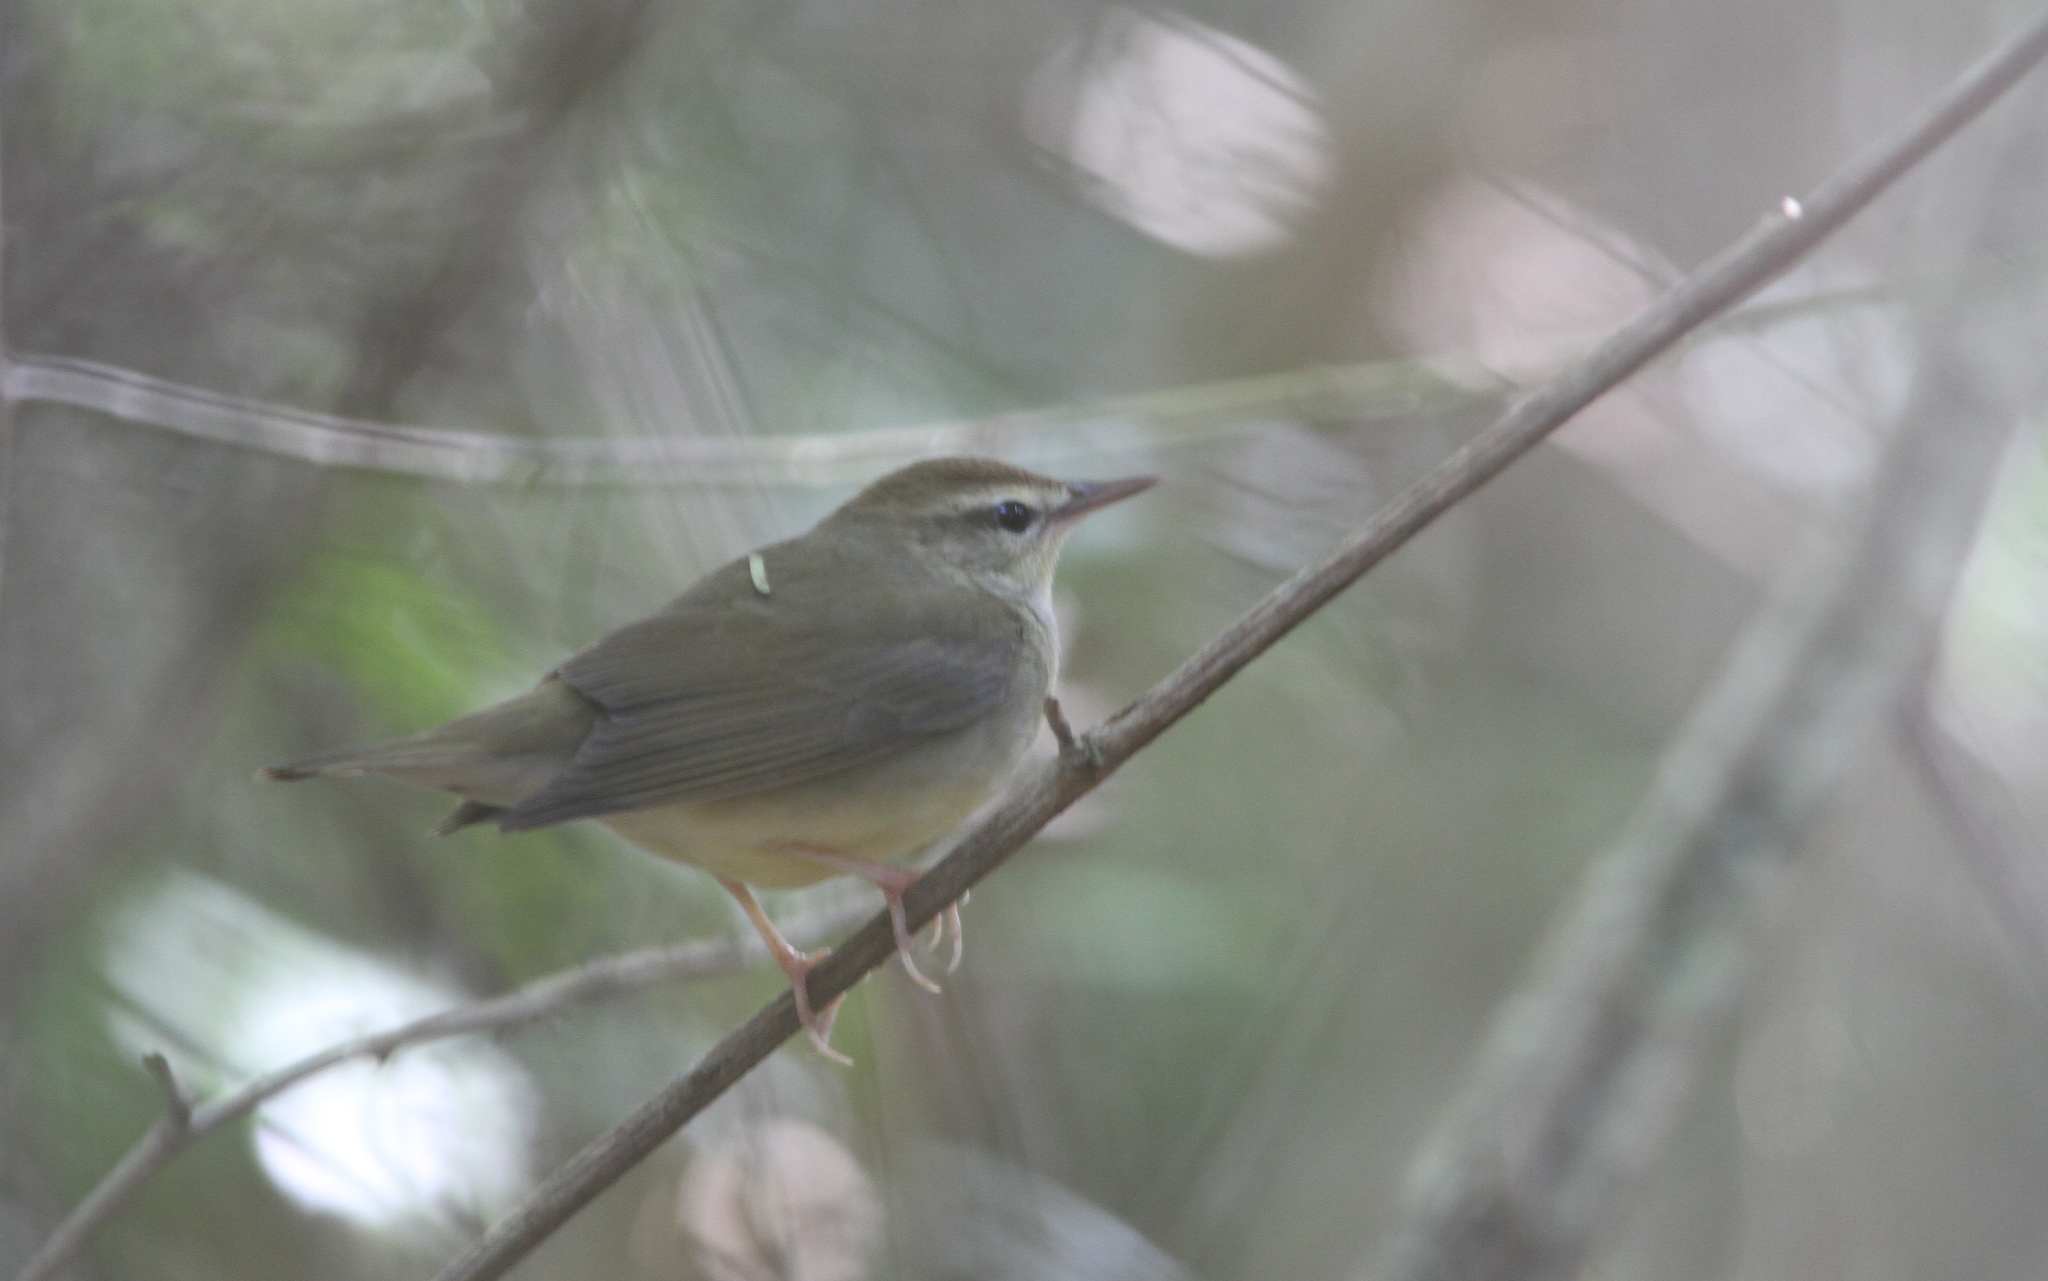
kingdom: Animalia
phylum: Chordata
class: Aves
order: Passeriformes
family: Parulidae
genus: Limnothlypis
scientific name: Limnothlypis swainsonii
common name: Swainson's warbler
